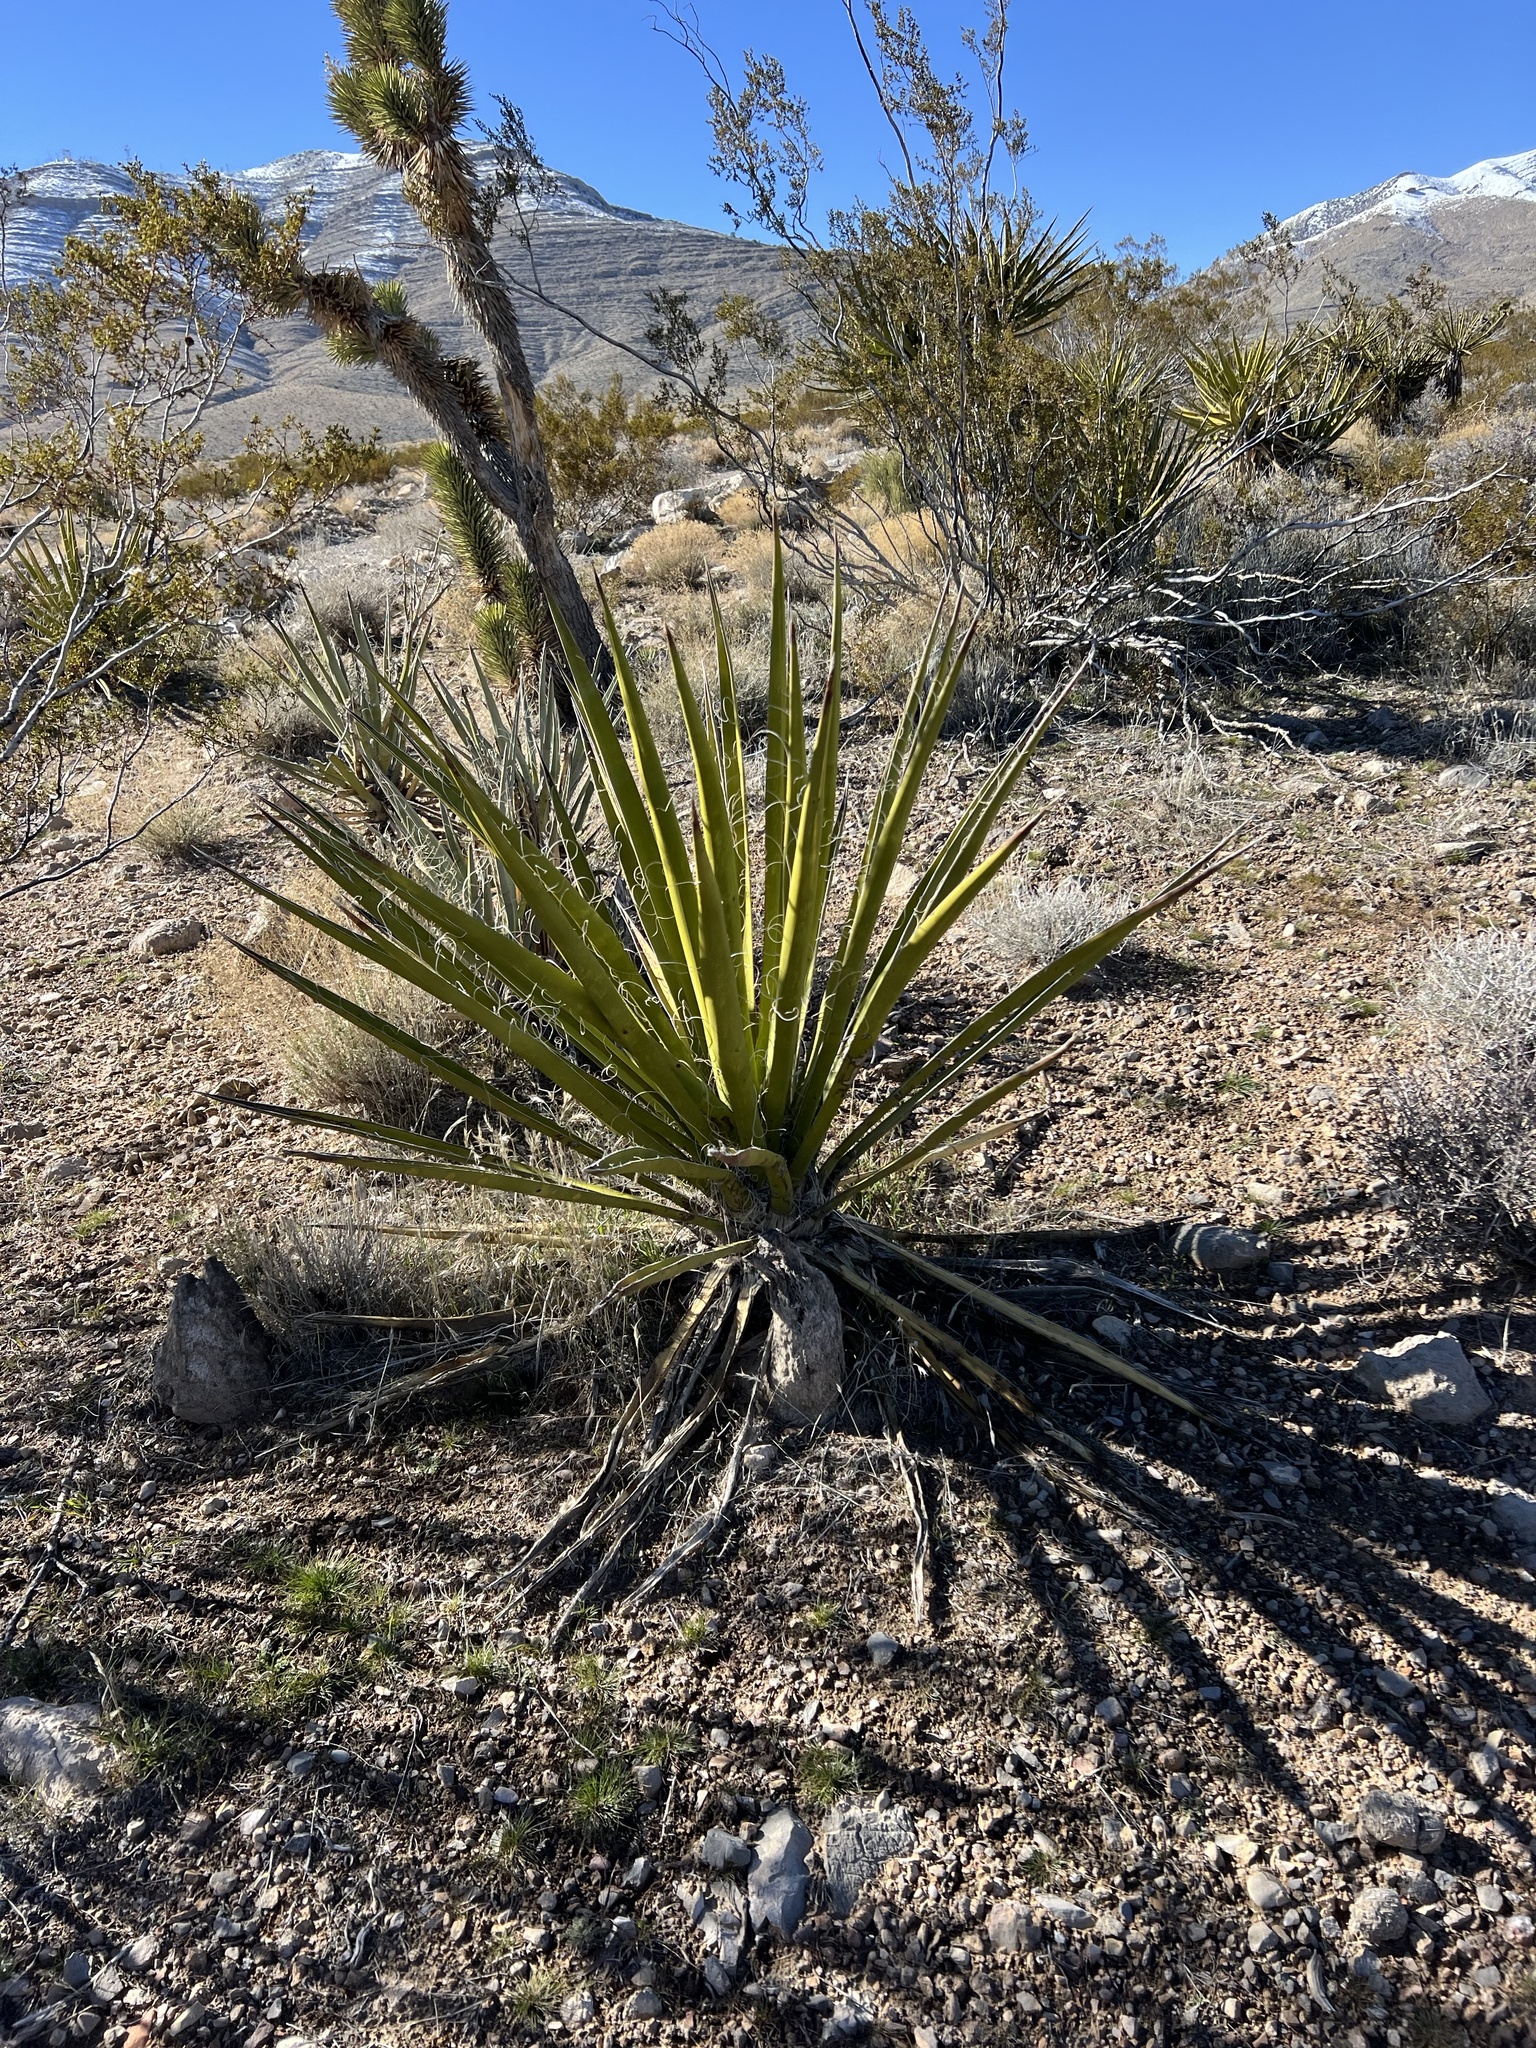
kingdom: Plantae
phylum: Tracheophyta
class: Liliopsida
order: Asparagales
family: Asparagaceae
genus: Yucca
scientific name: Yucca schidigera
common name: Mojave yucca
